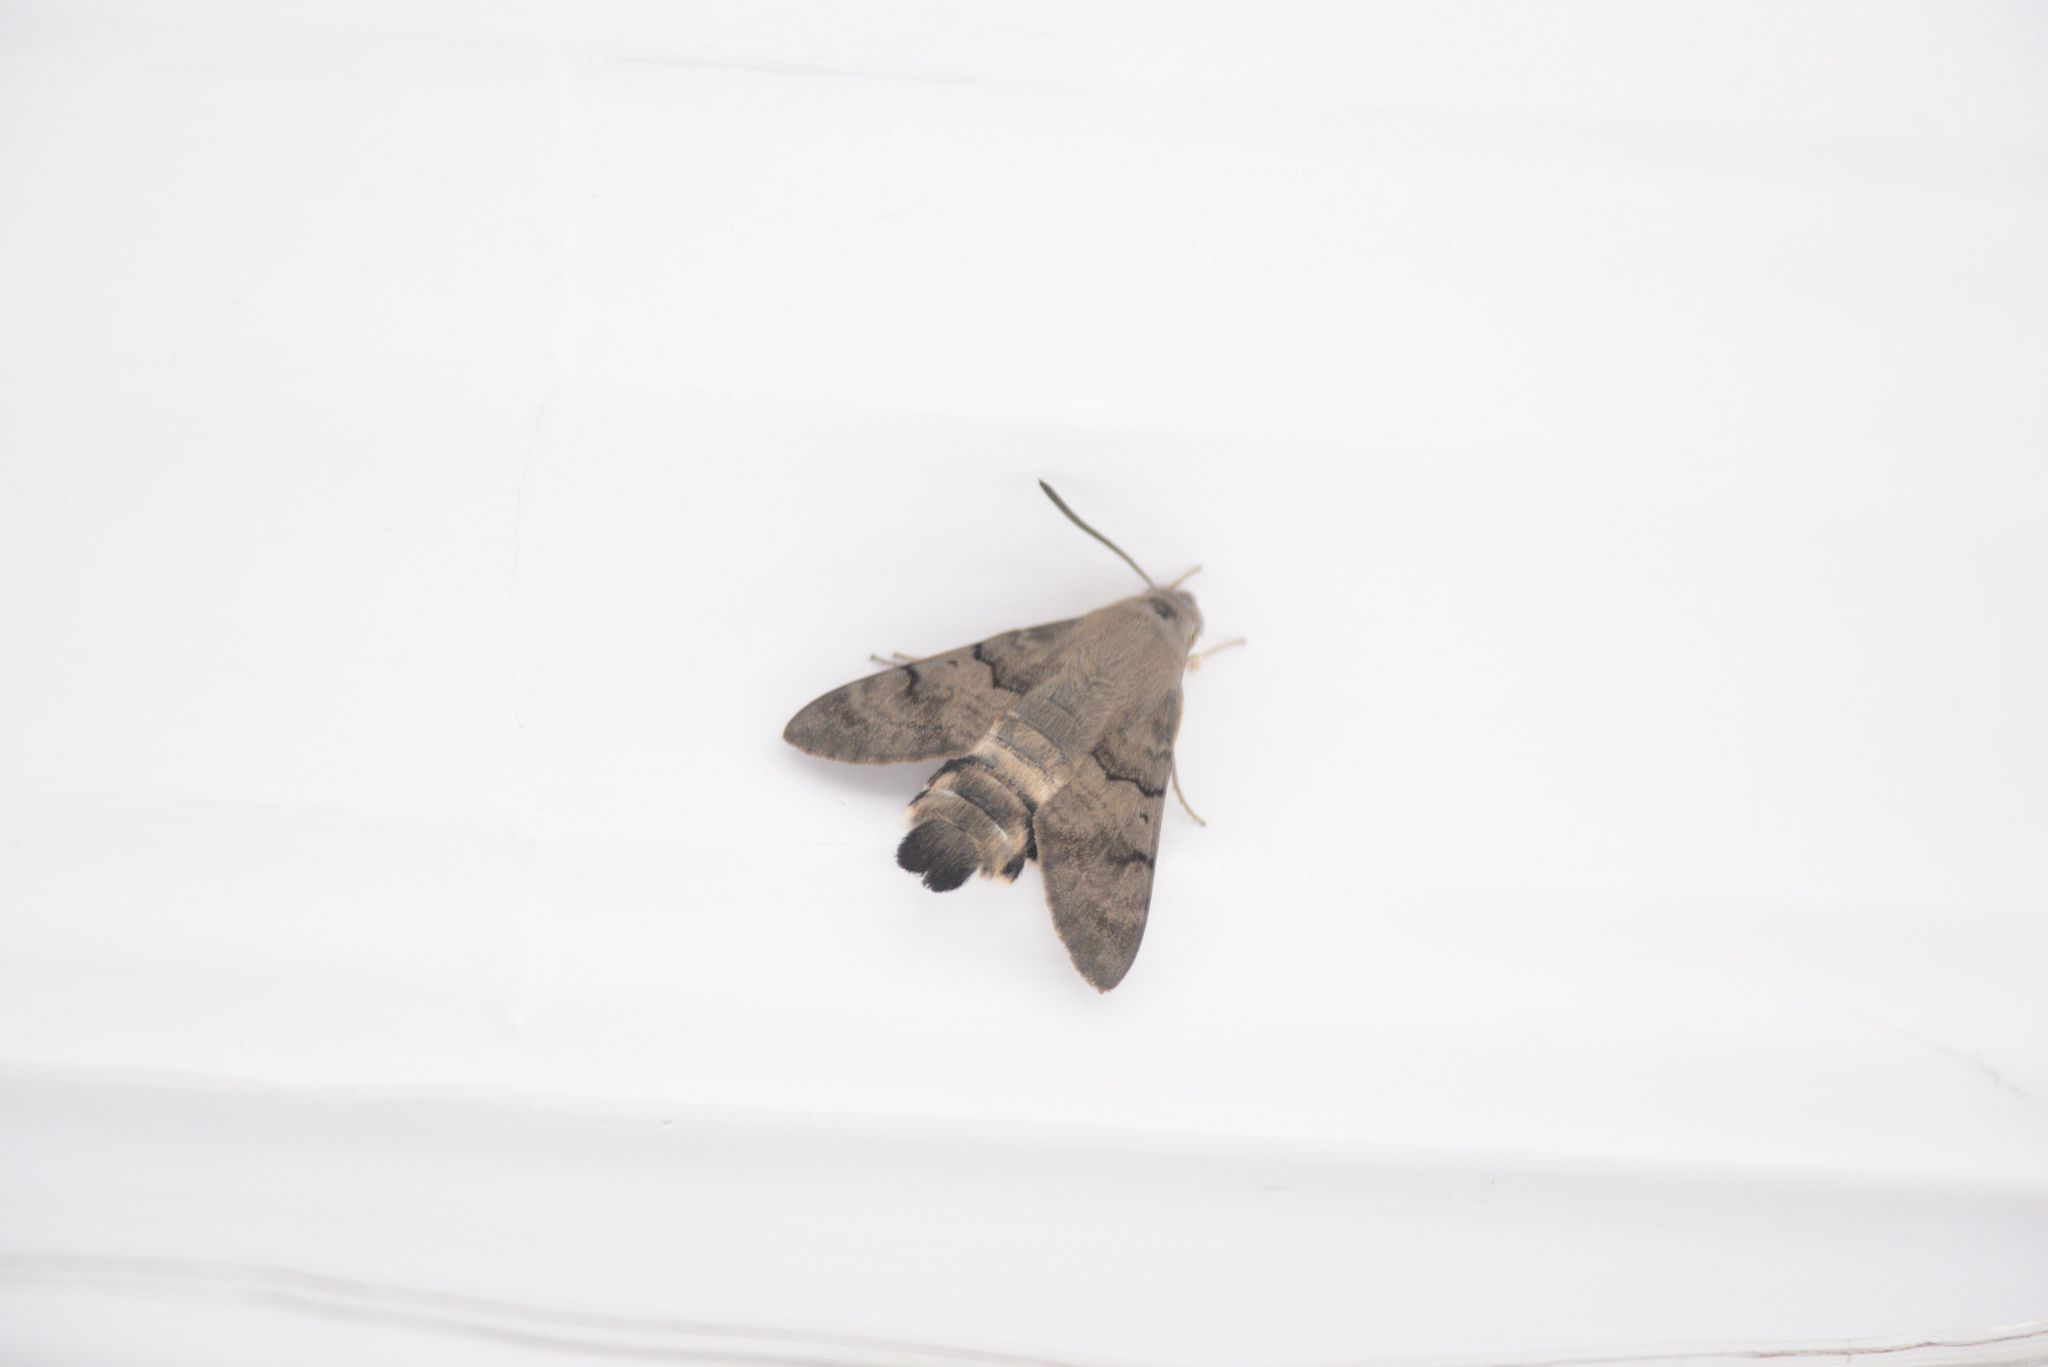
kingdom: Animalia
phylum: Arthropoda
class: Insecta
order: Lepidoptera
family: Sphingidae
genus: Macroglossum
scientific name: Macroglossum stellatarum
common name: Humming-bird hawk-moth
